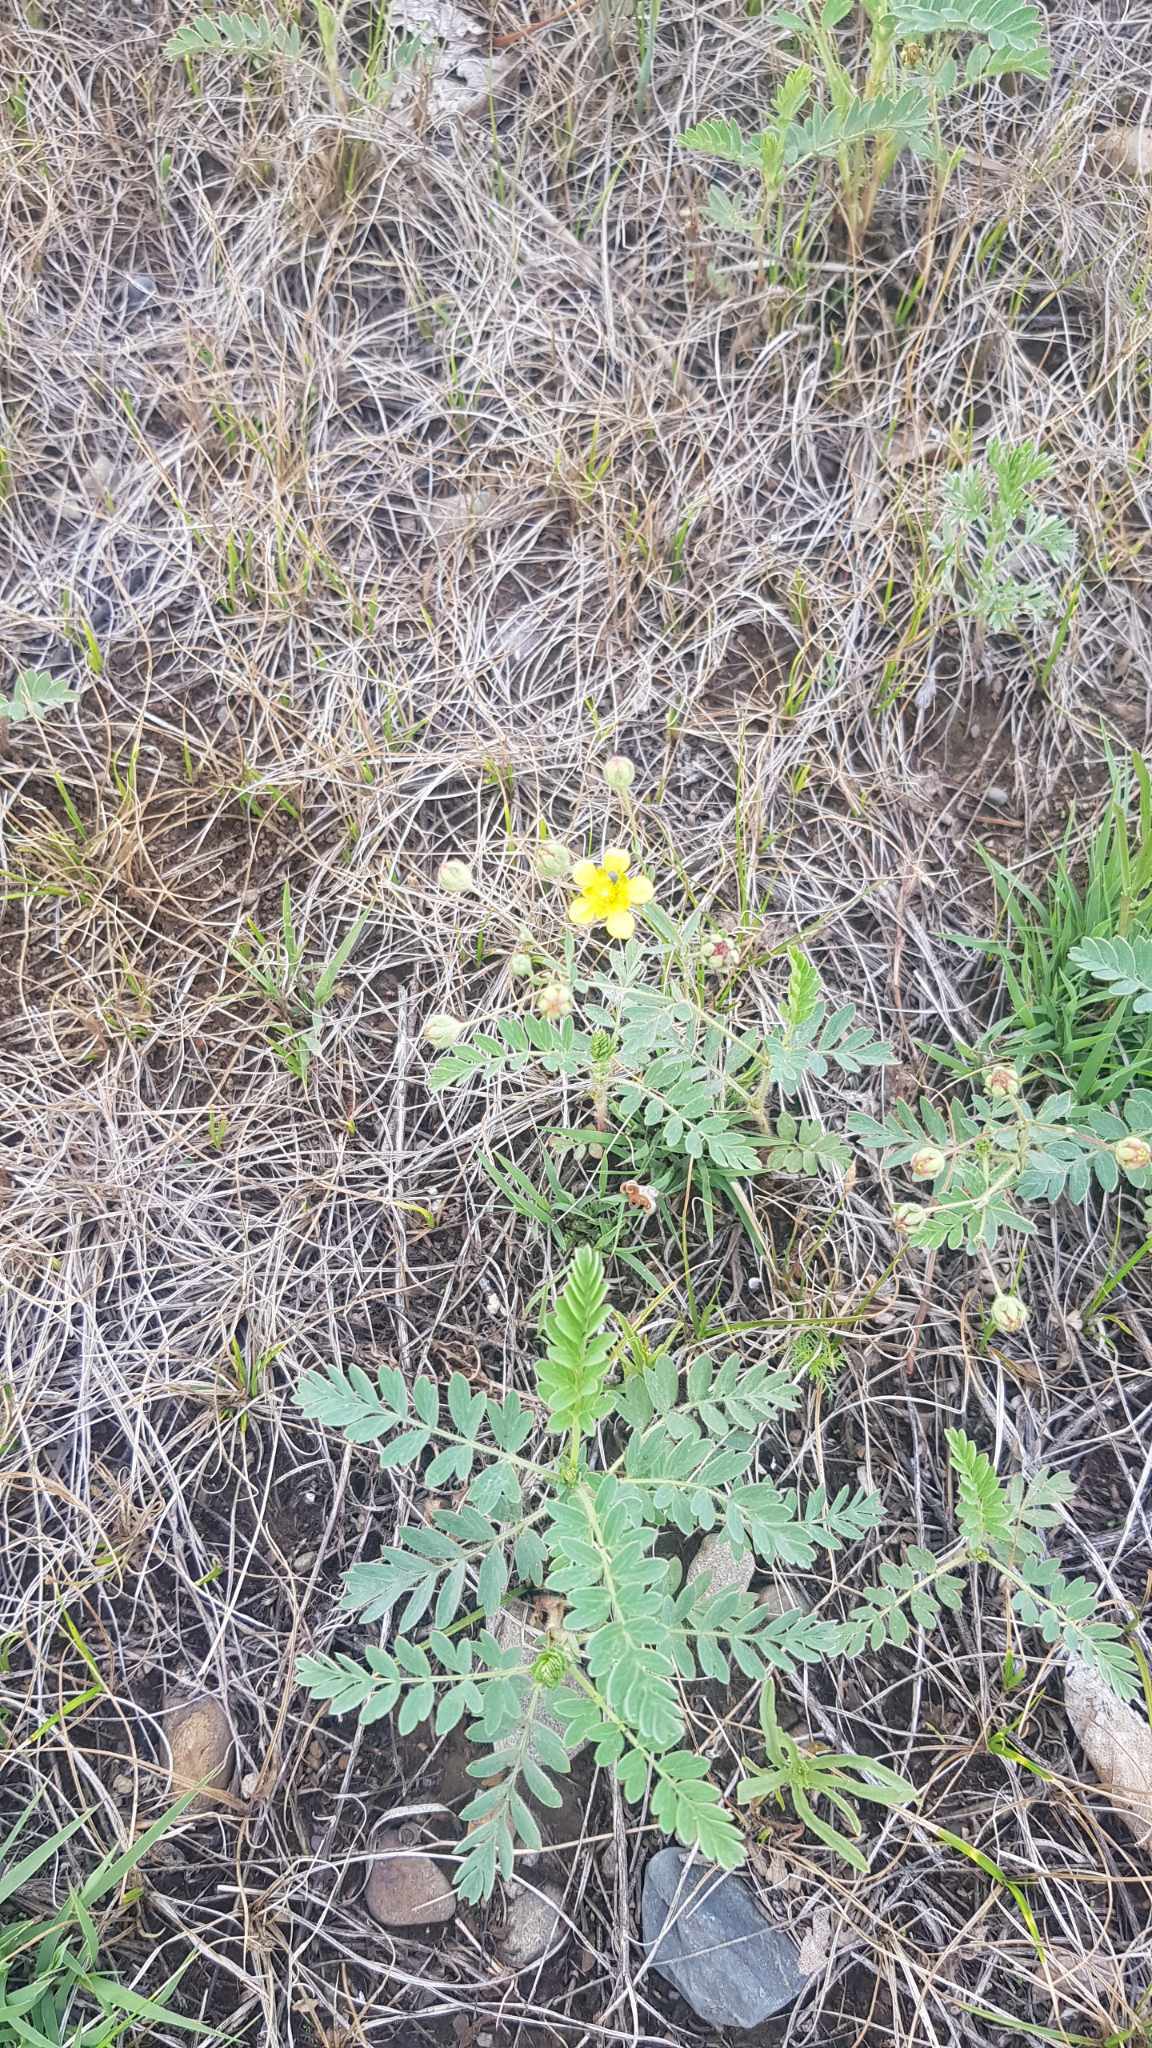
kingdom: Plantae
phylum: Tracheophyta
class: Magnoliopsida
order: Rosales
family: Rosaceae
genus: Sibbaldianthe
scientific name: Sibbaldianthe bifurca
